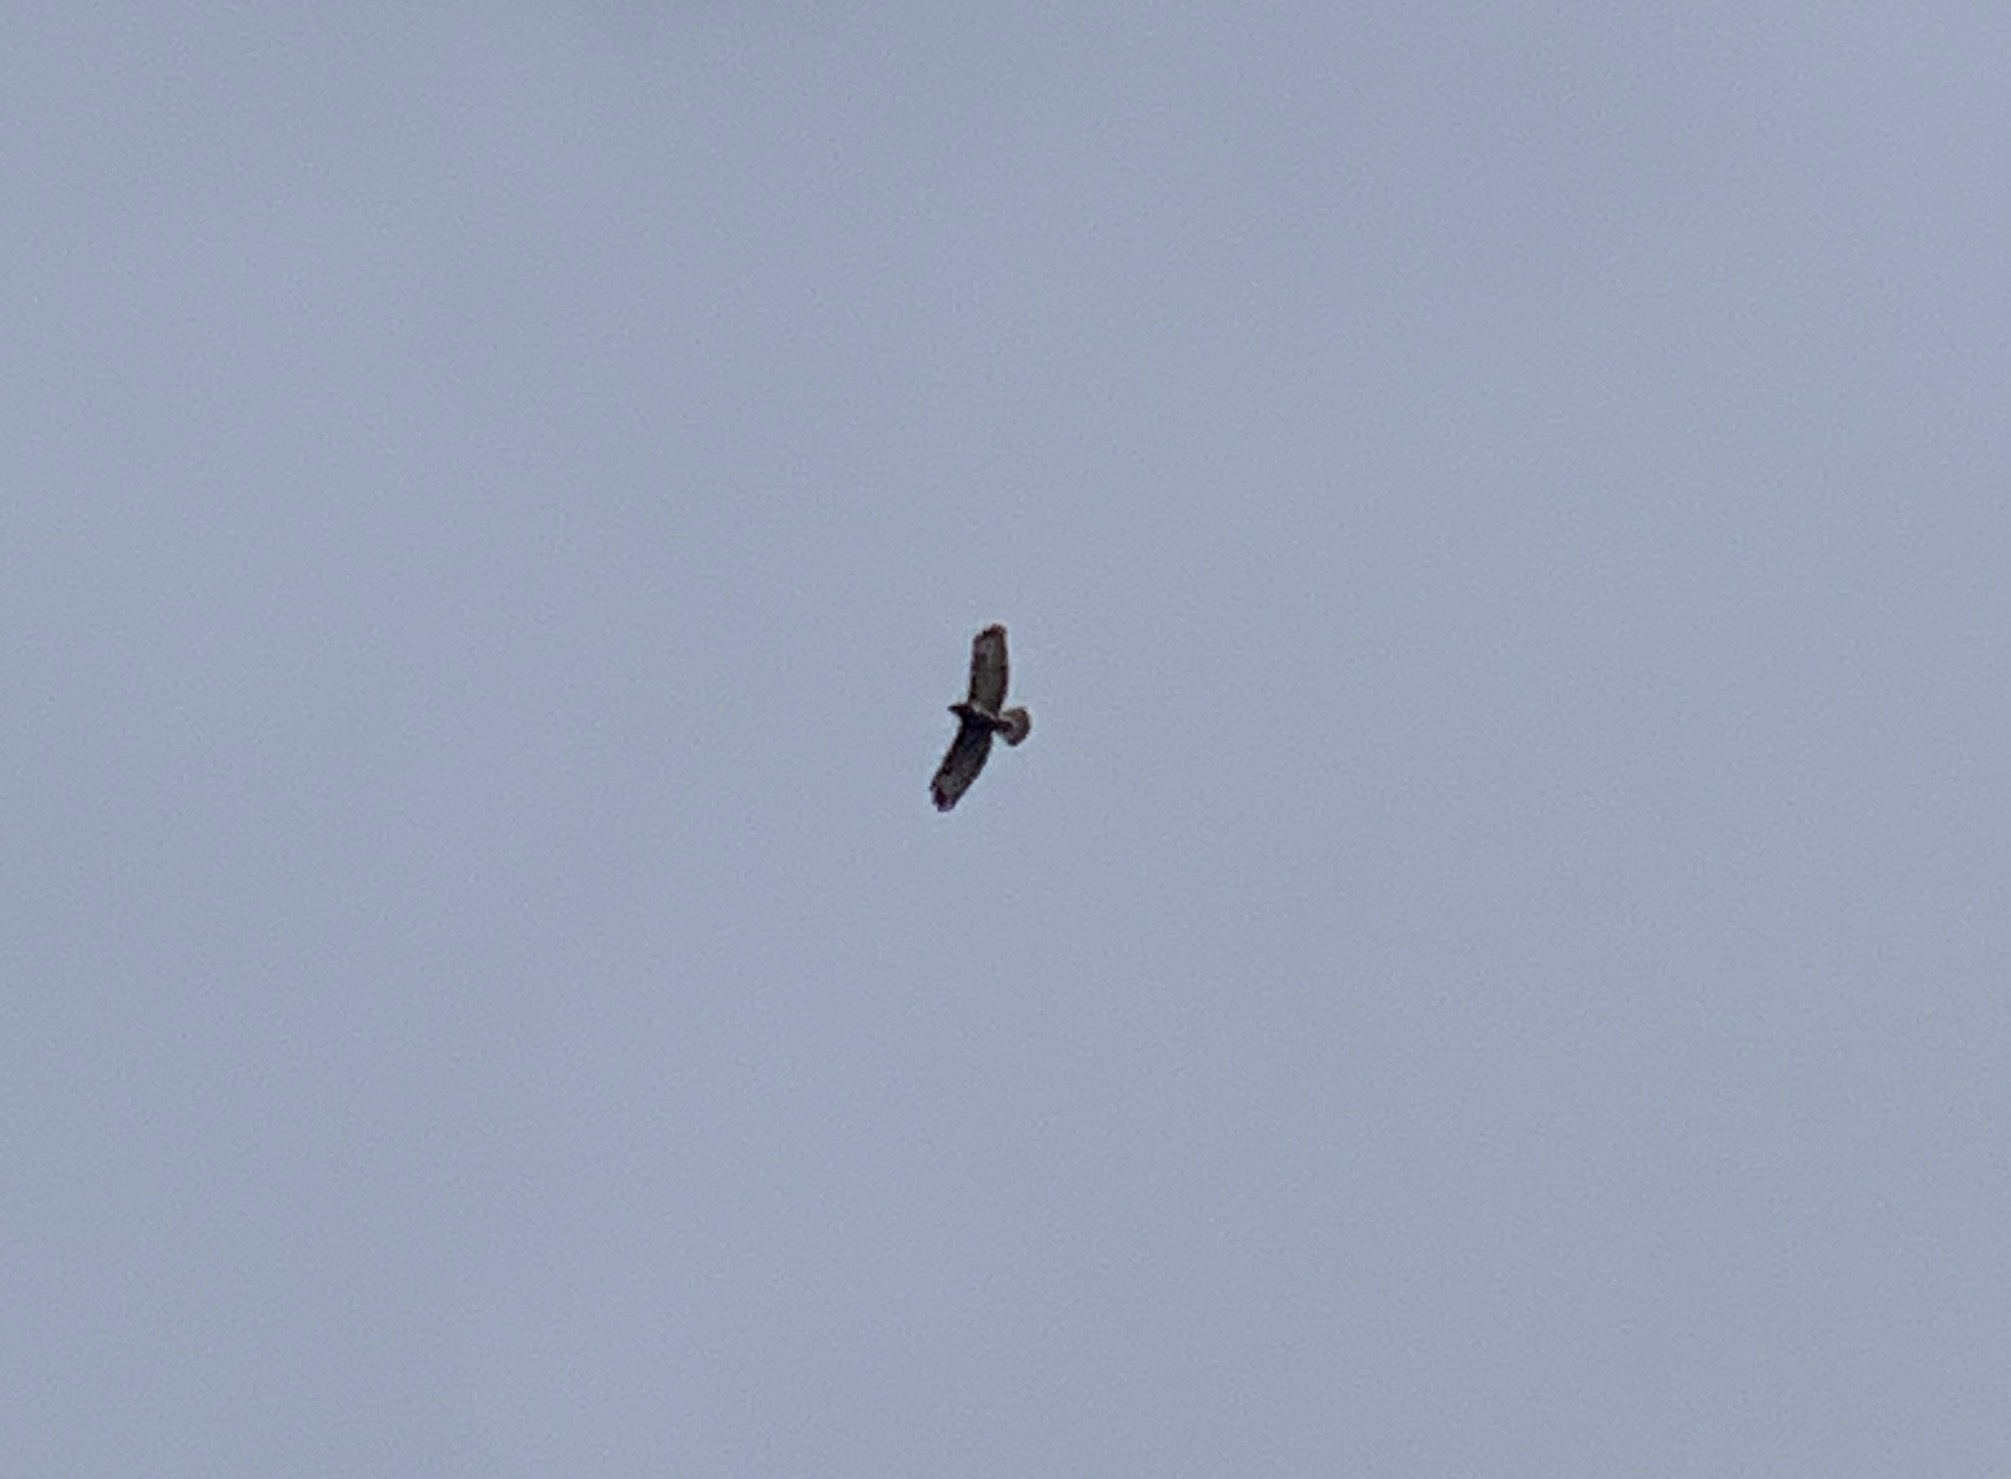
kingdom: Animalia
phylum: Chordata
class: Aves
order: Accipitriformes
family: Accipitridae
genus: Buteo
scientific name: Buteo buteo
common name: Common buzzard
